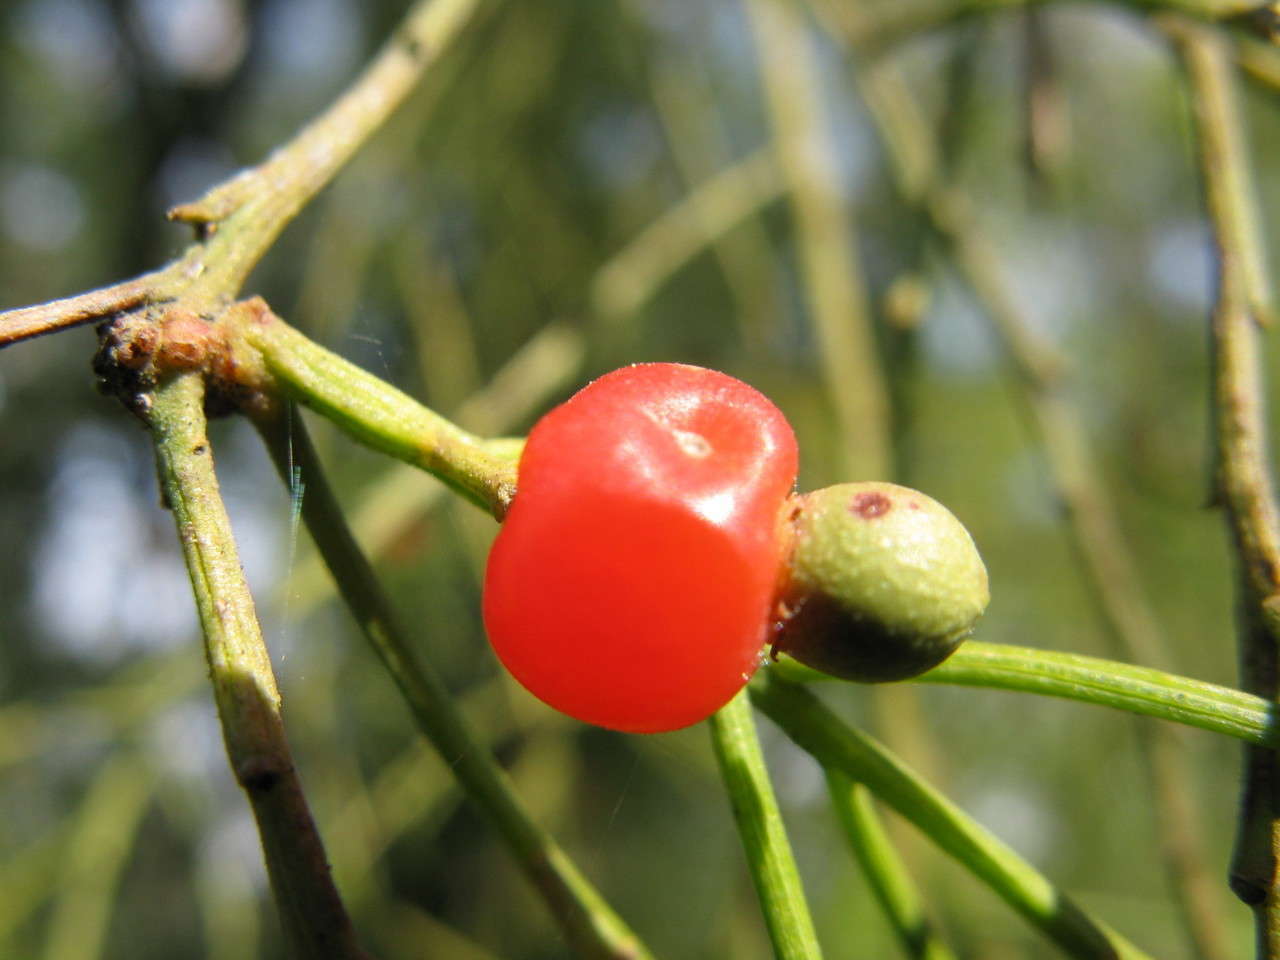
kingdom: Plantae
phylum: Tracheophyta
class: Magnoliopsida
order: Santalales
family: Santalaceae
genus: Exocarpos
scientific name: Exocarpos cupressiformis
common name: Cherry ballart
